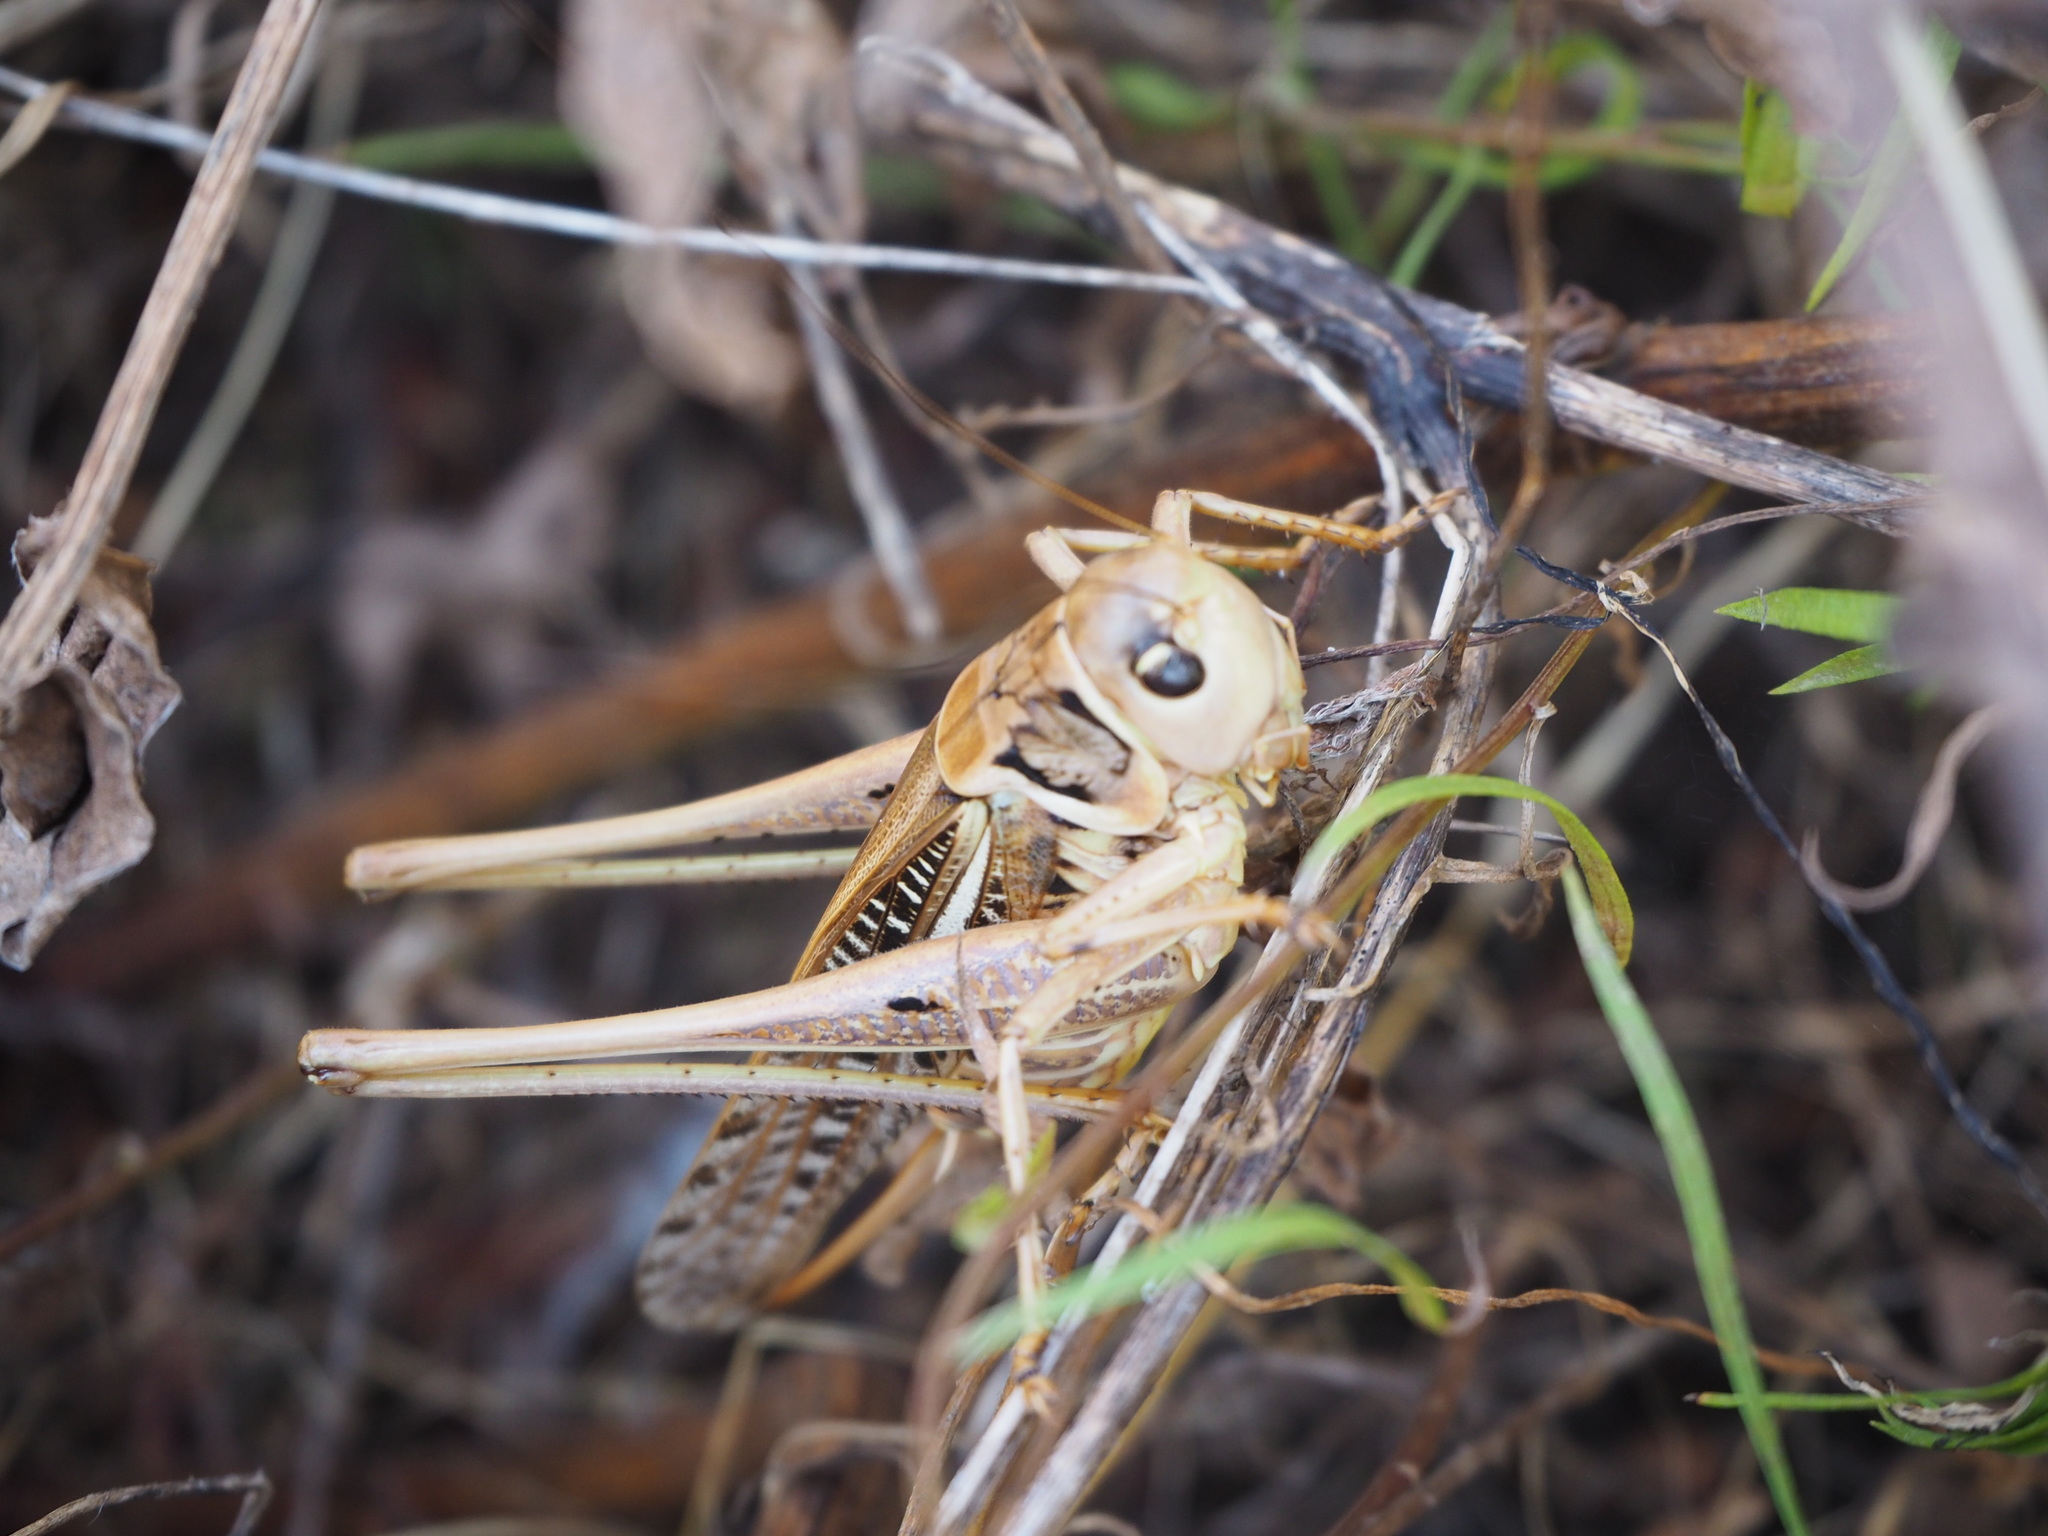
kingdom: Animalia
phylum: Arthropoda
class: Insecta
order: Orthoptera
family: Tettigoniidae
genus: Decticus
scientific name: Decticus albifrons
